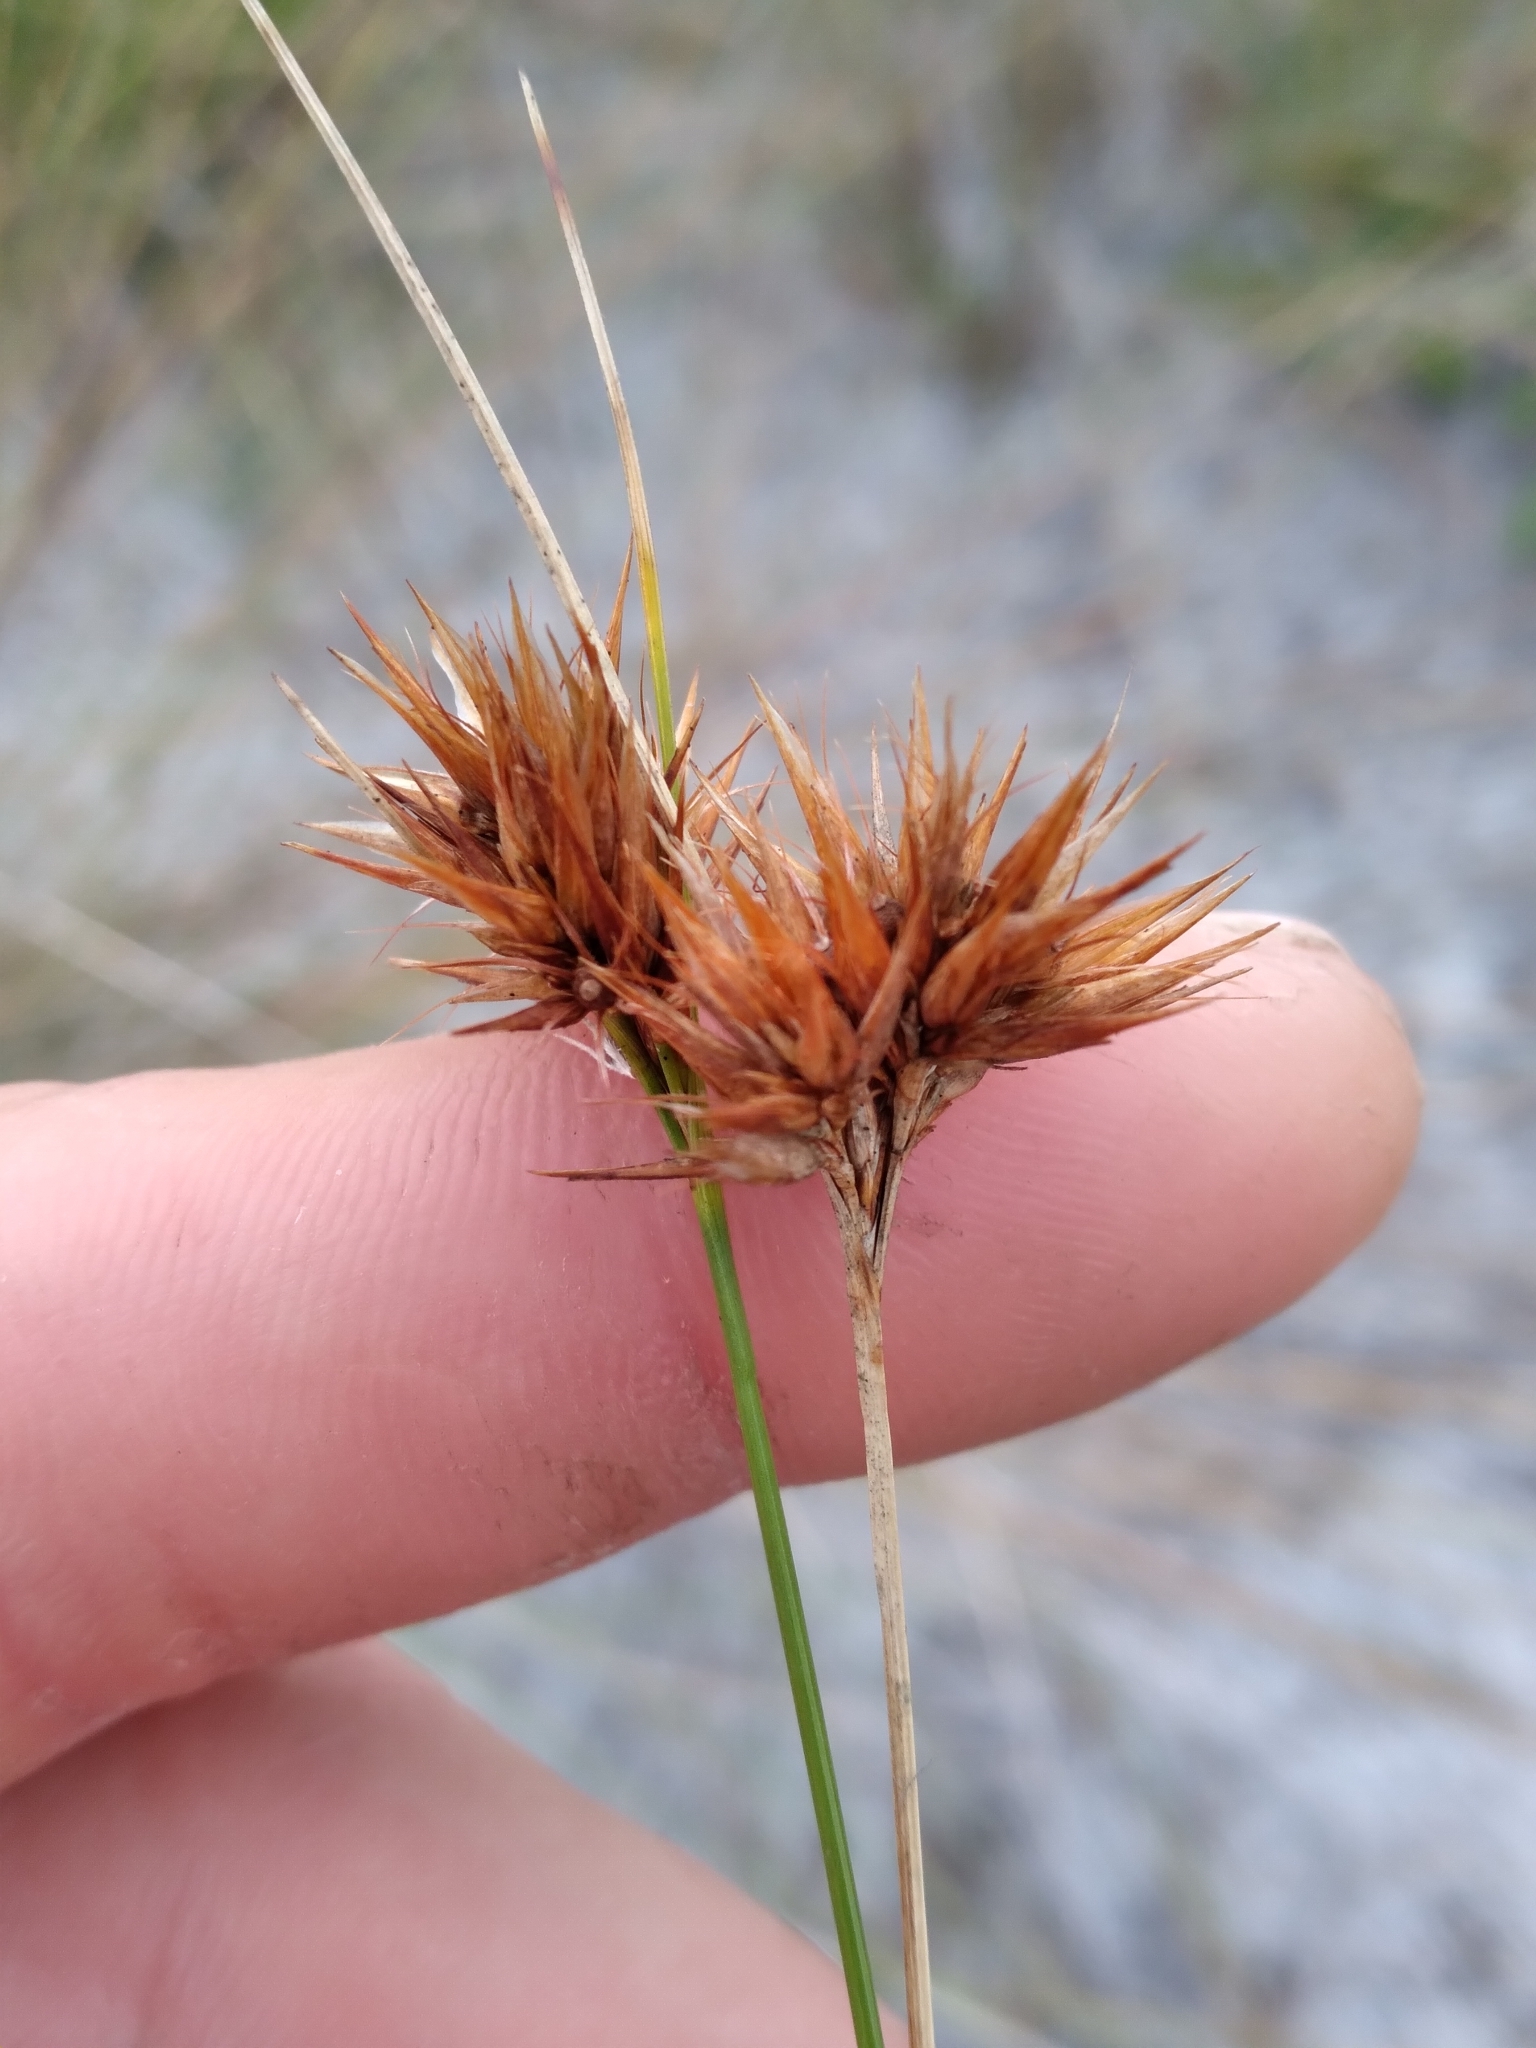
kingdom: Plantae
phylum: Tracheophyta
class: Liliopsida
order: Poales
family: Cyperaceae
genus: Rhynchospora
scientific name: Rhynchospora megaplumosa
